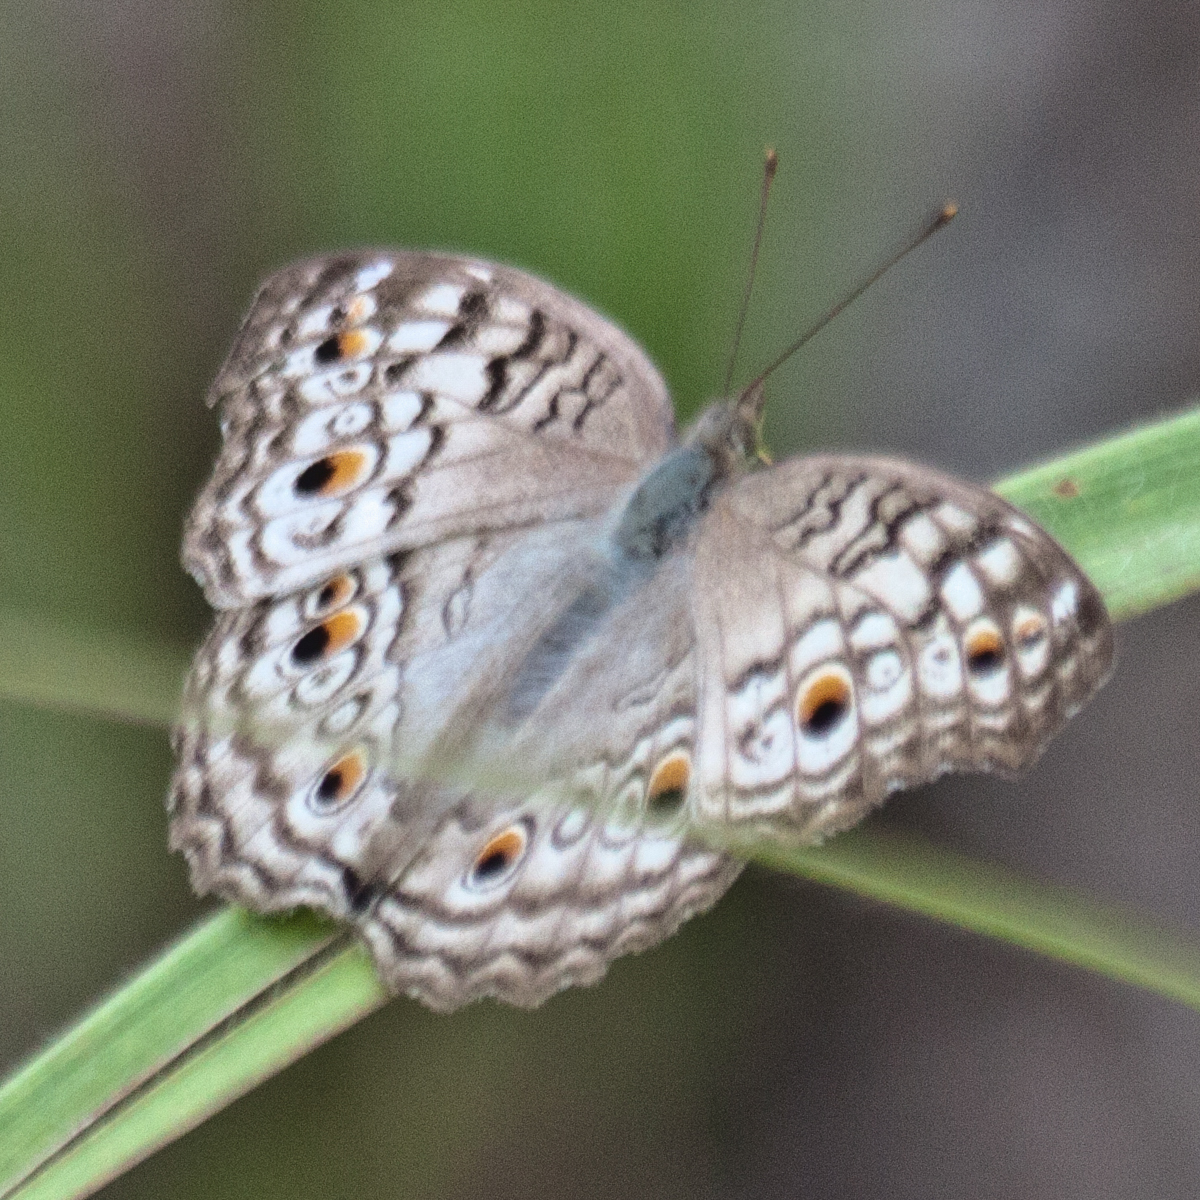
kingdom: Animalia
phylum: Arthropoda
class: Insecta
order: Lepidoptera
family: Nymphalidae
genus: Junonia
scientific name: Junonia atlites
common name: Grey pansy
